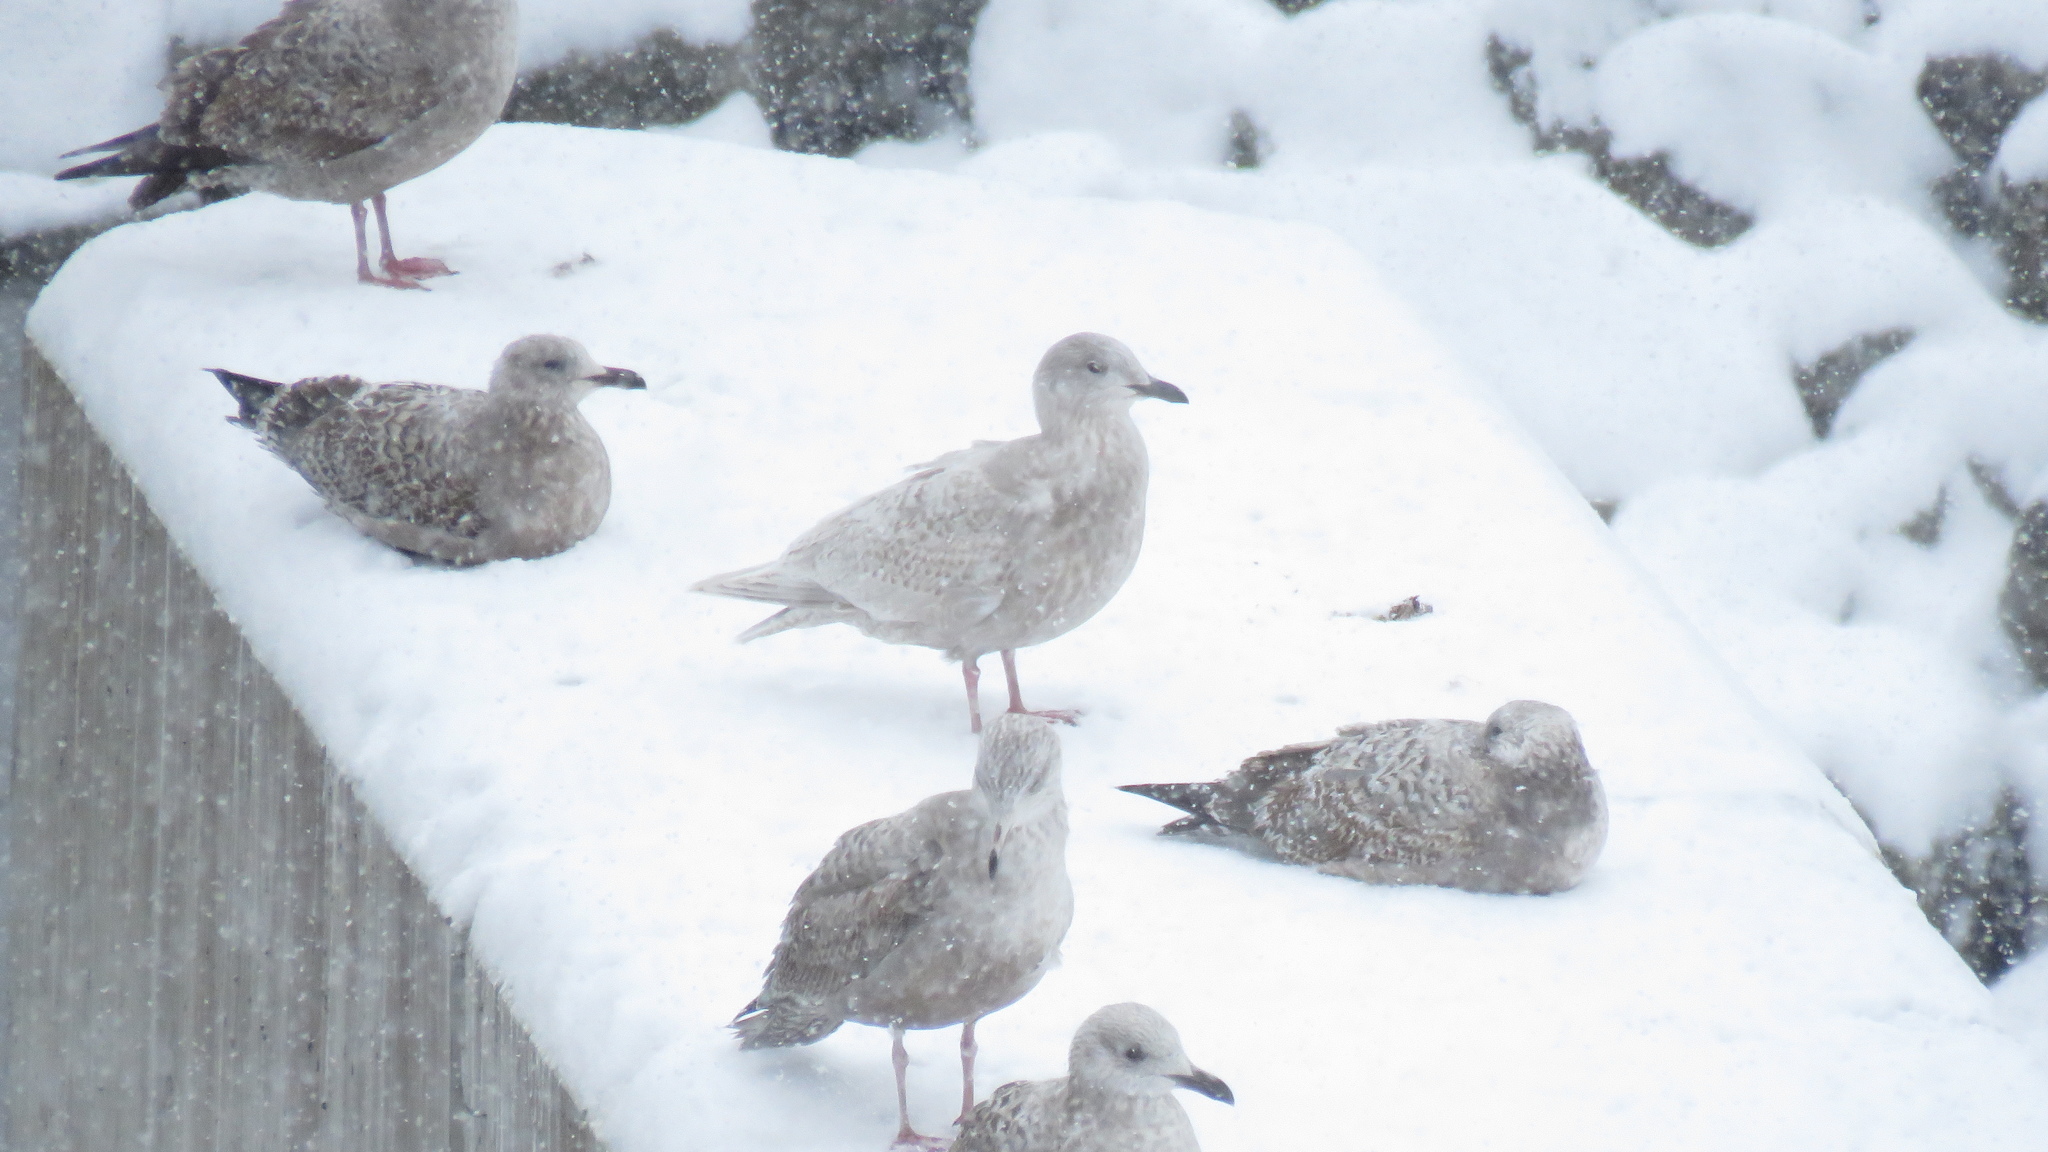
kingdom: Animalia
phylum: Chordata
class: Aves
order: Charadriiformes
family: Laridae
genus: Larus
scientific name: Larus glaucoides
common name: Iceland gull
